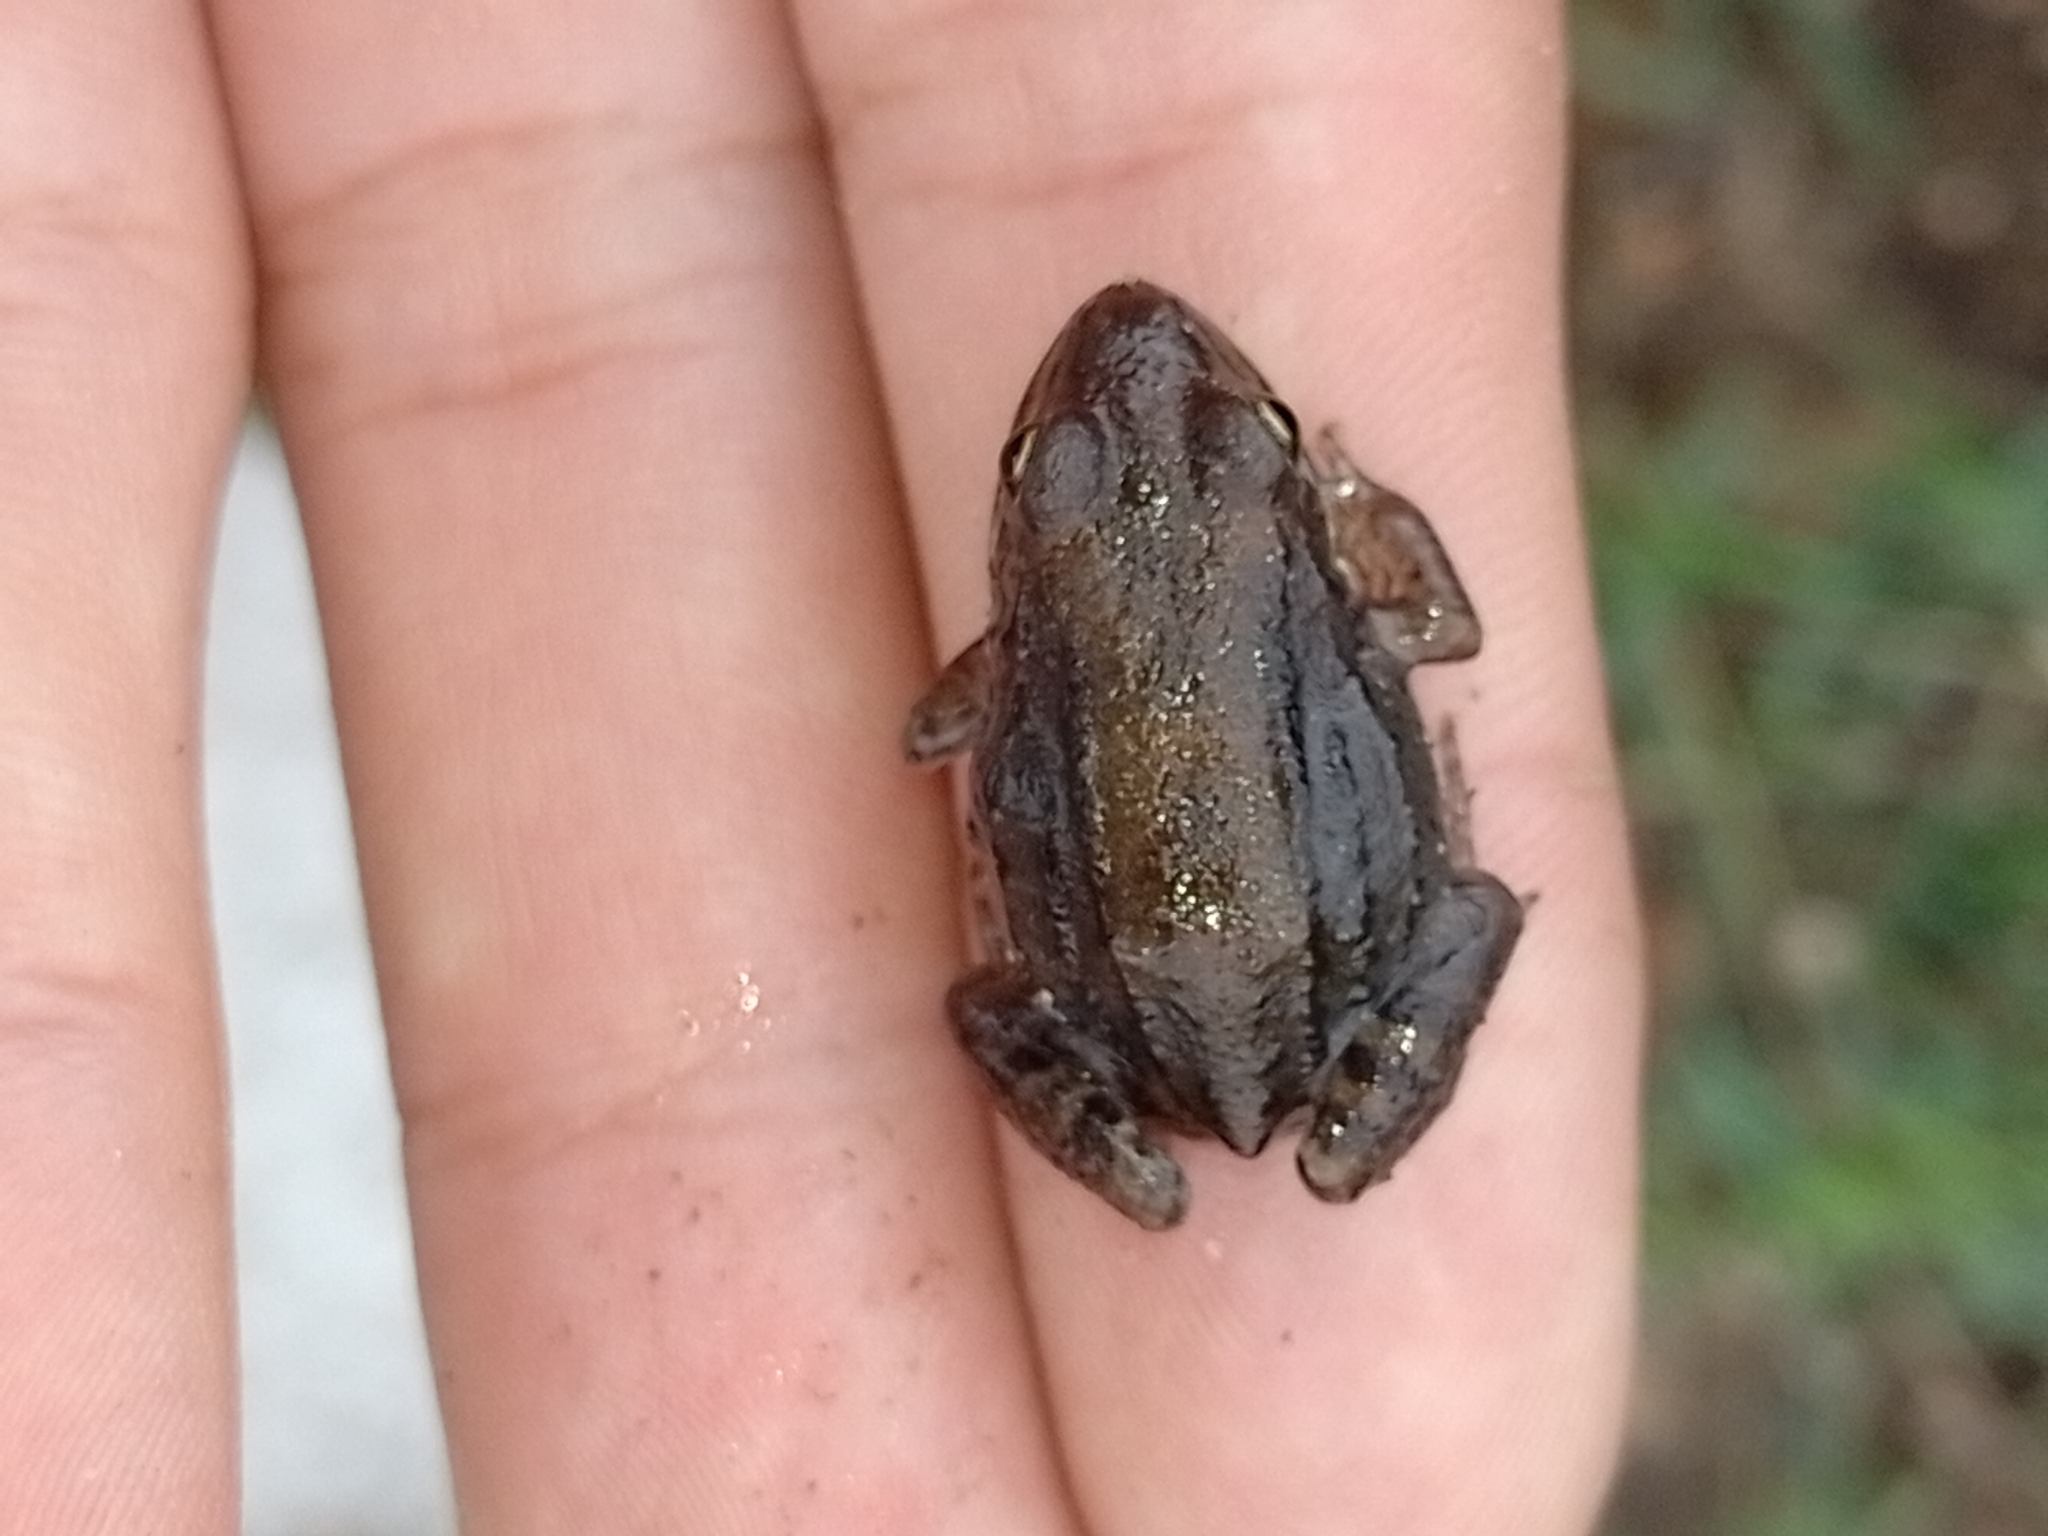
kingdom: Animalia
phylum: Chordata
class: Amphibia
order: Anura
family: Leptodactylidae
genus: Leptodactylus
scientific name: Leptodactylus mystacinus
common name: Moustached frog
